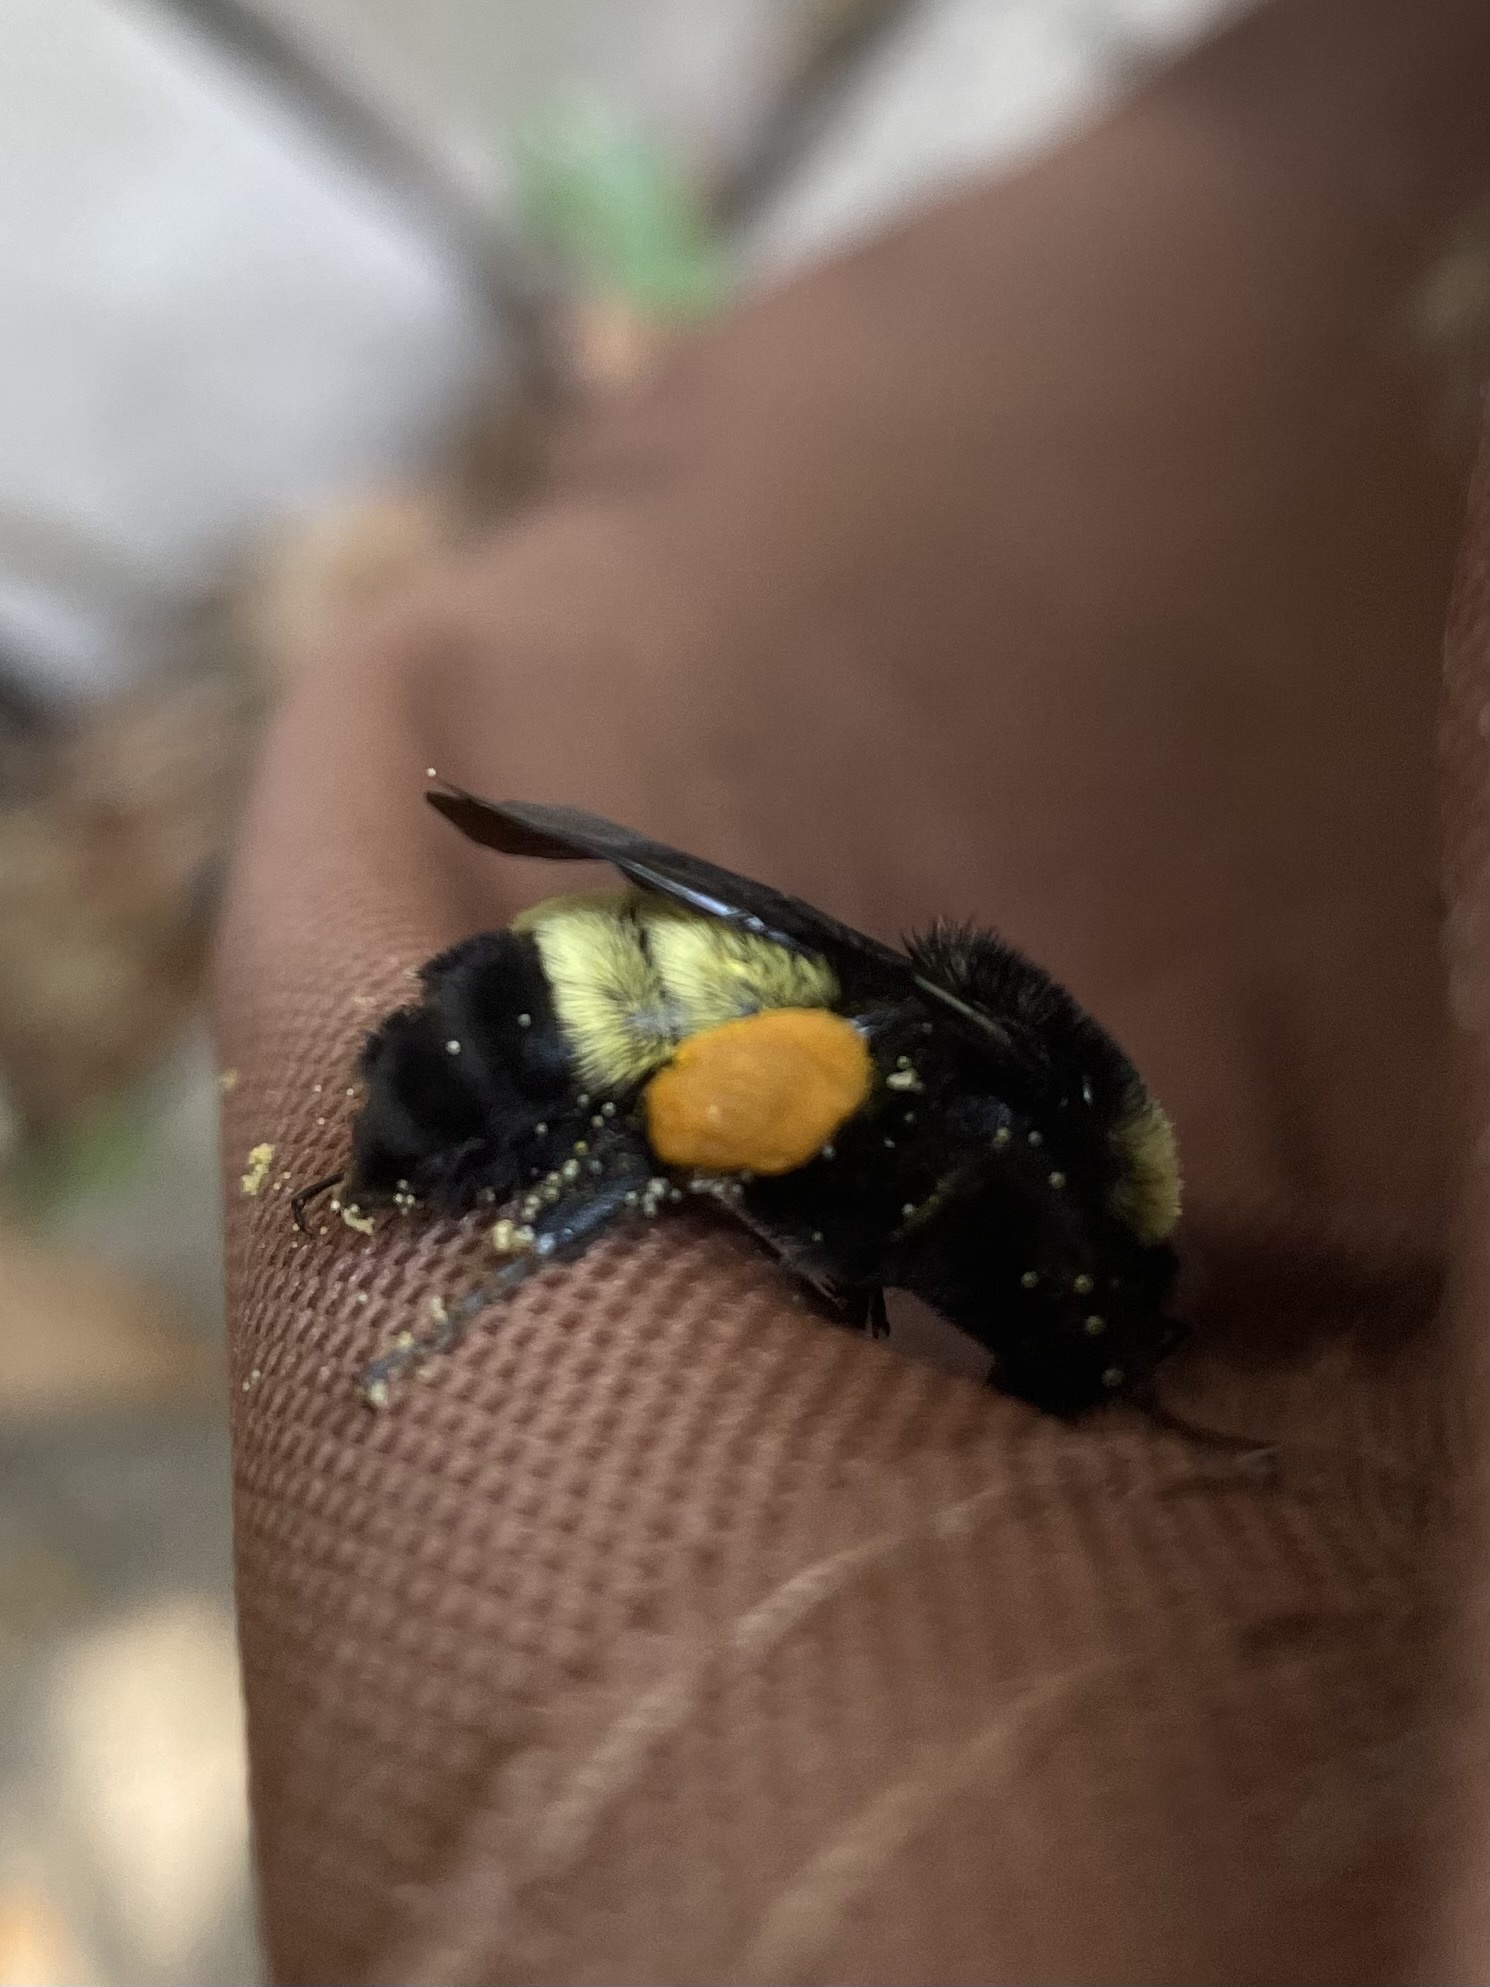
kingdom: Animalia
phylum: Arthropoda
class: Insecta
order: Hymenoptera
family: Apidae
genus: Bombus
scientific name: Bombus pensylvanicus
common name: Bumble bee
